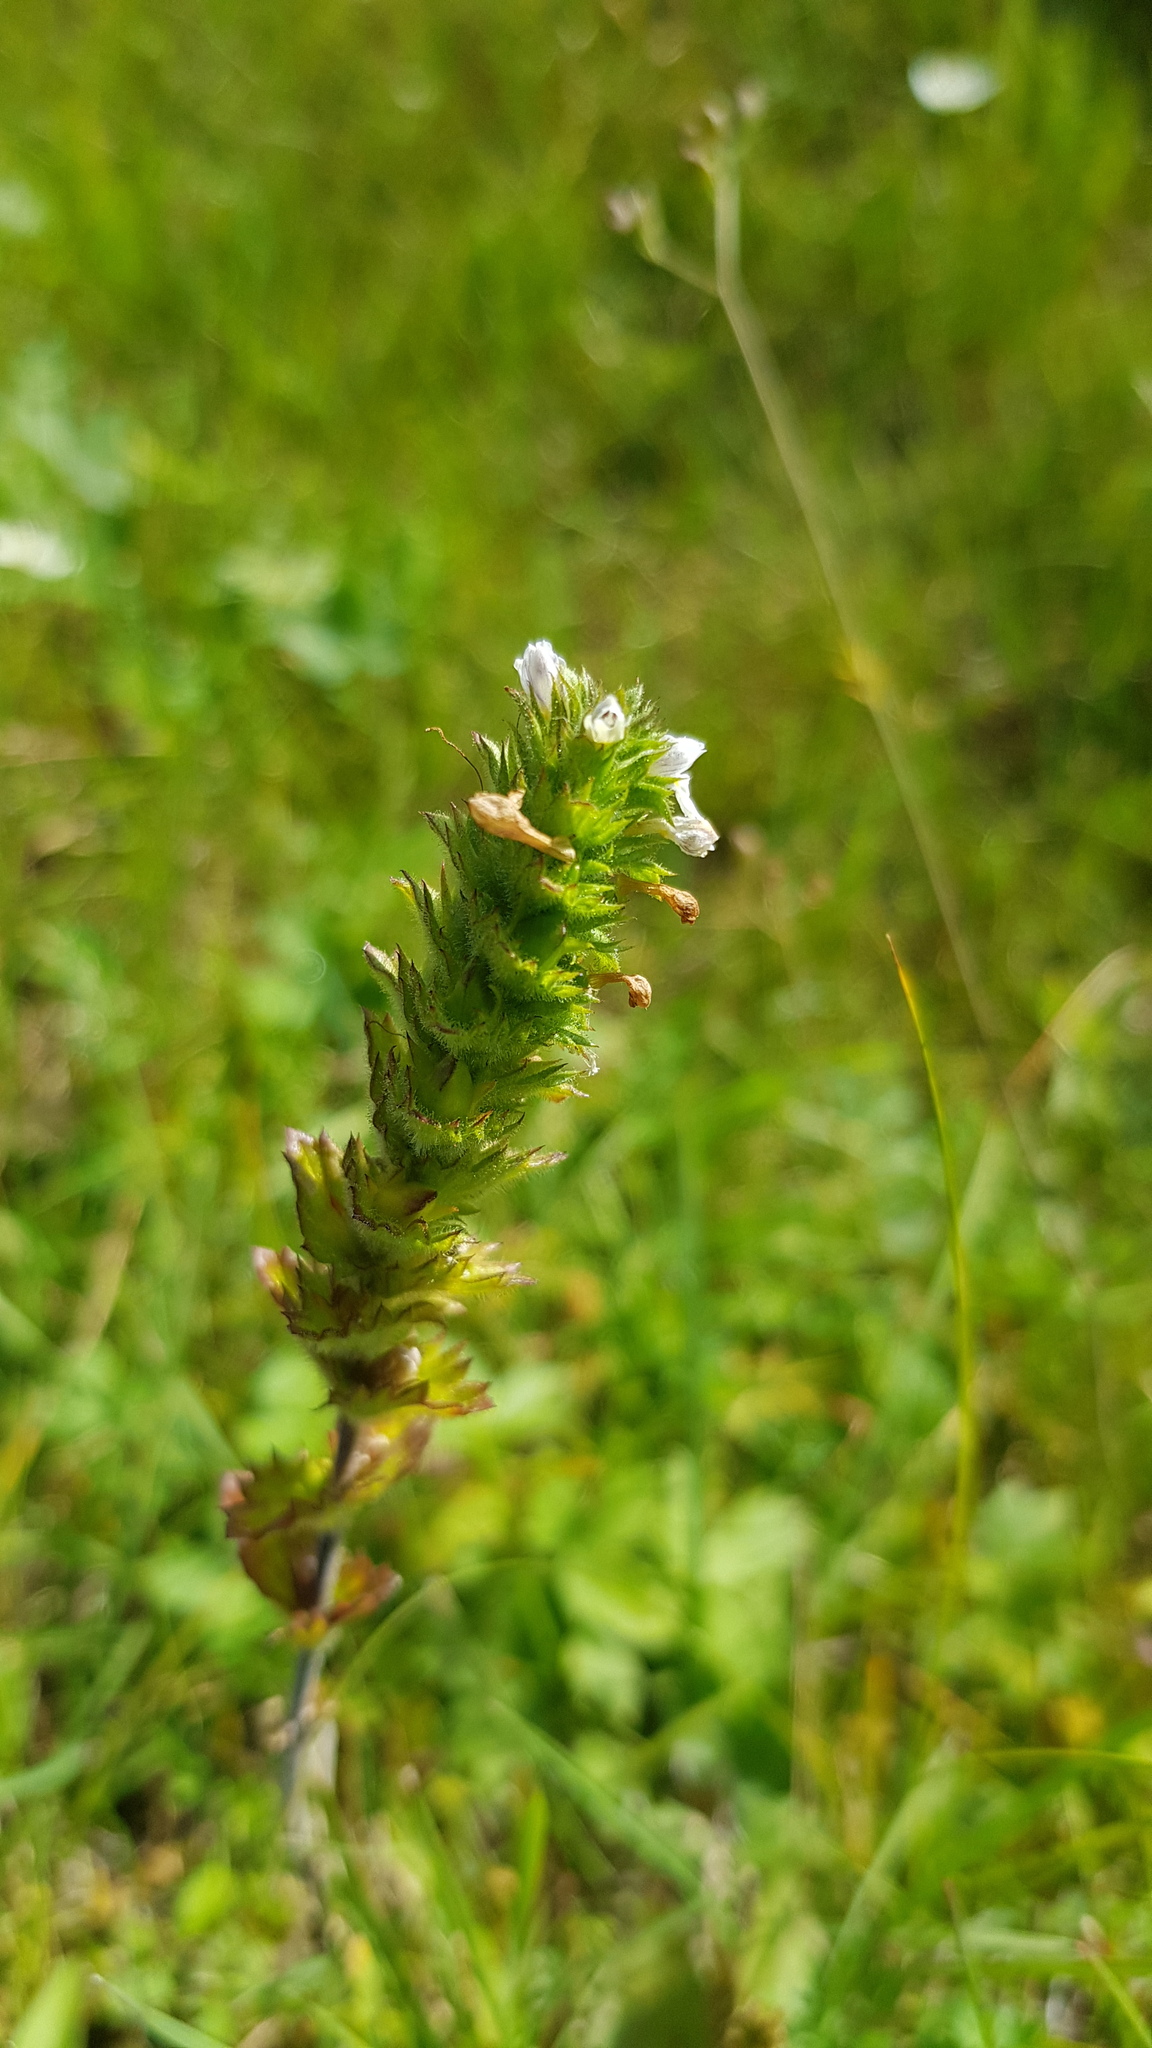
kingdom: Plantae
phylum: Tracheophyta
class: Magnoliopsida
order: Lamiales
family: Orobanchaceae
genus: Euphrasia
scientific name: Euphrasia pectinata
